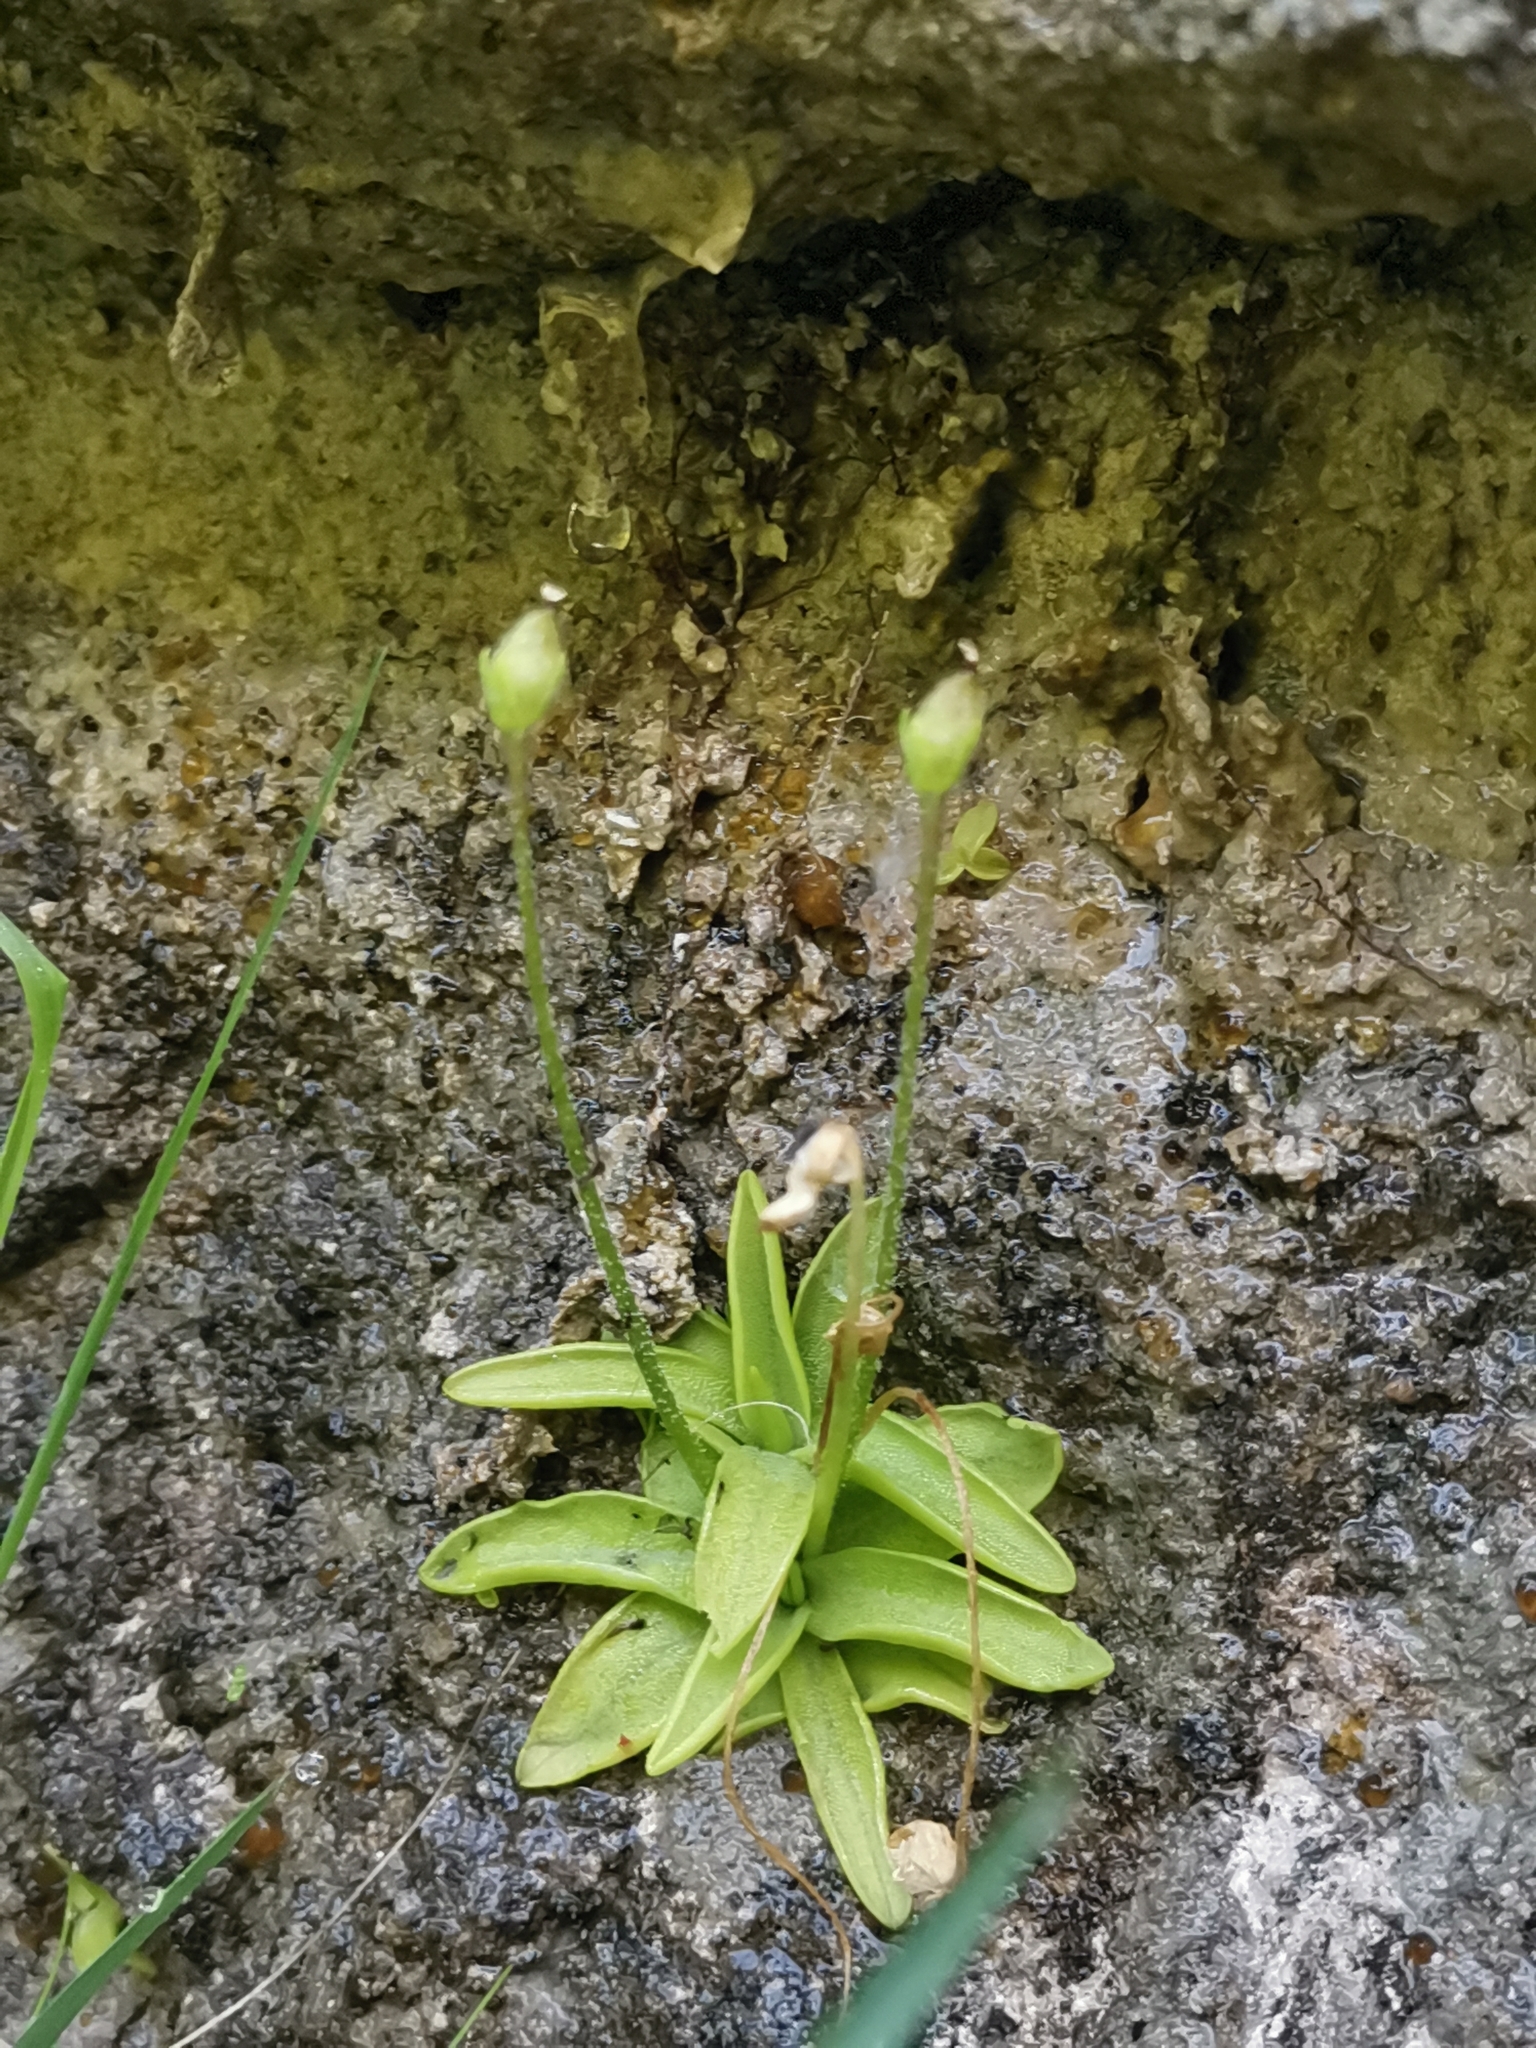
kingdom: Plantae
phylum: Tracheophyta
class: Magnoliopsida
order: Lamiales
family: Lentibulariaceae
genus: Pinguicula
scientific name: Pinguicula alpina
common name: Alpine butterwort
